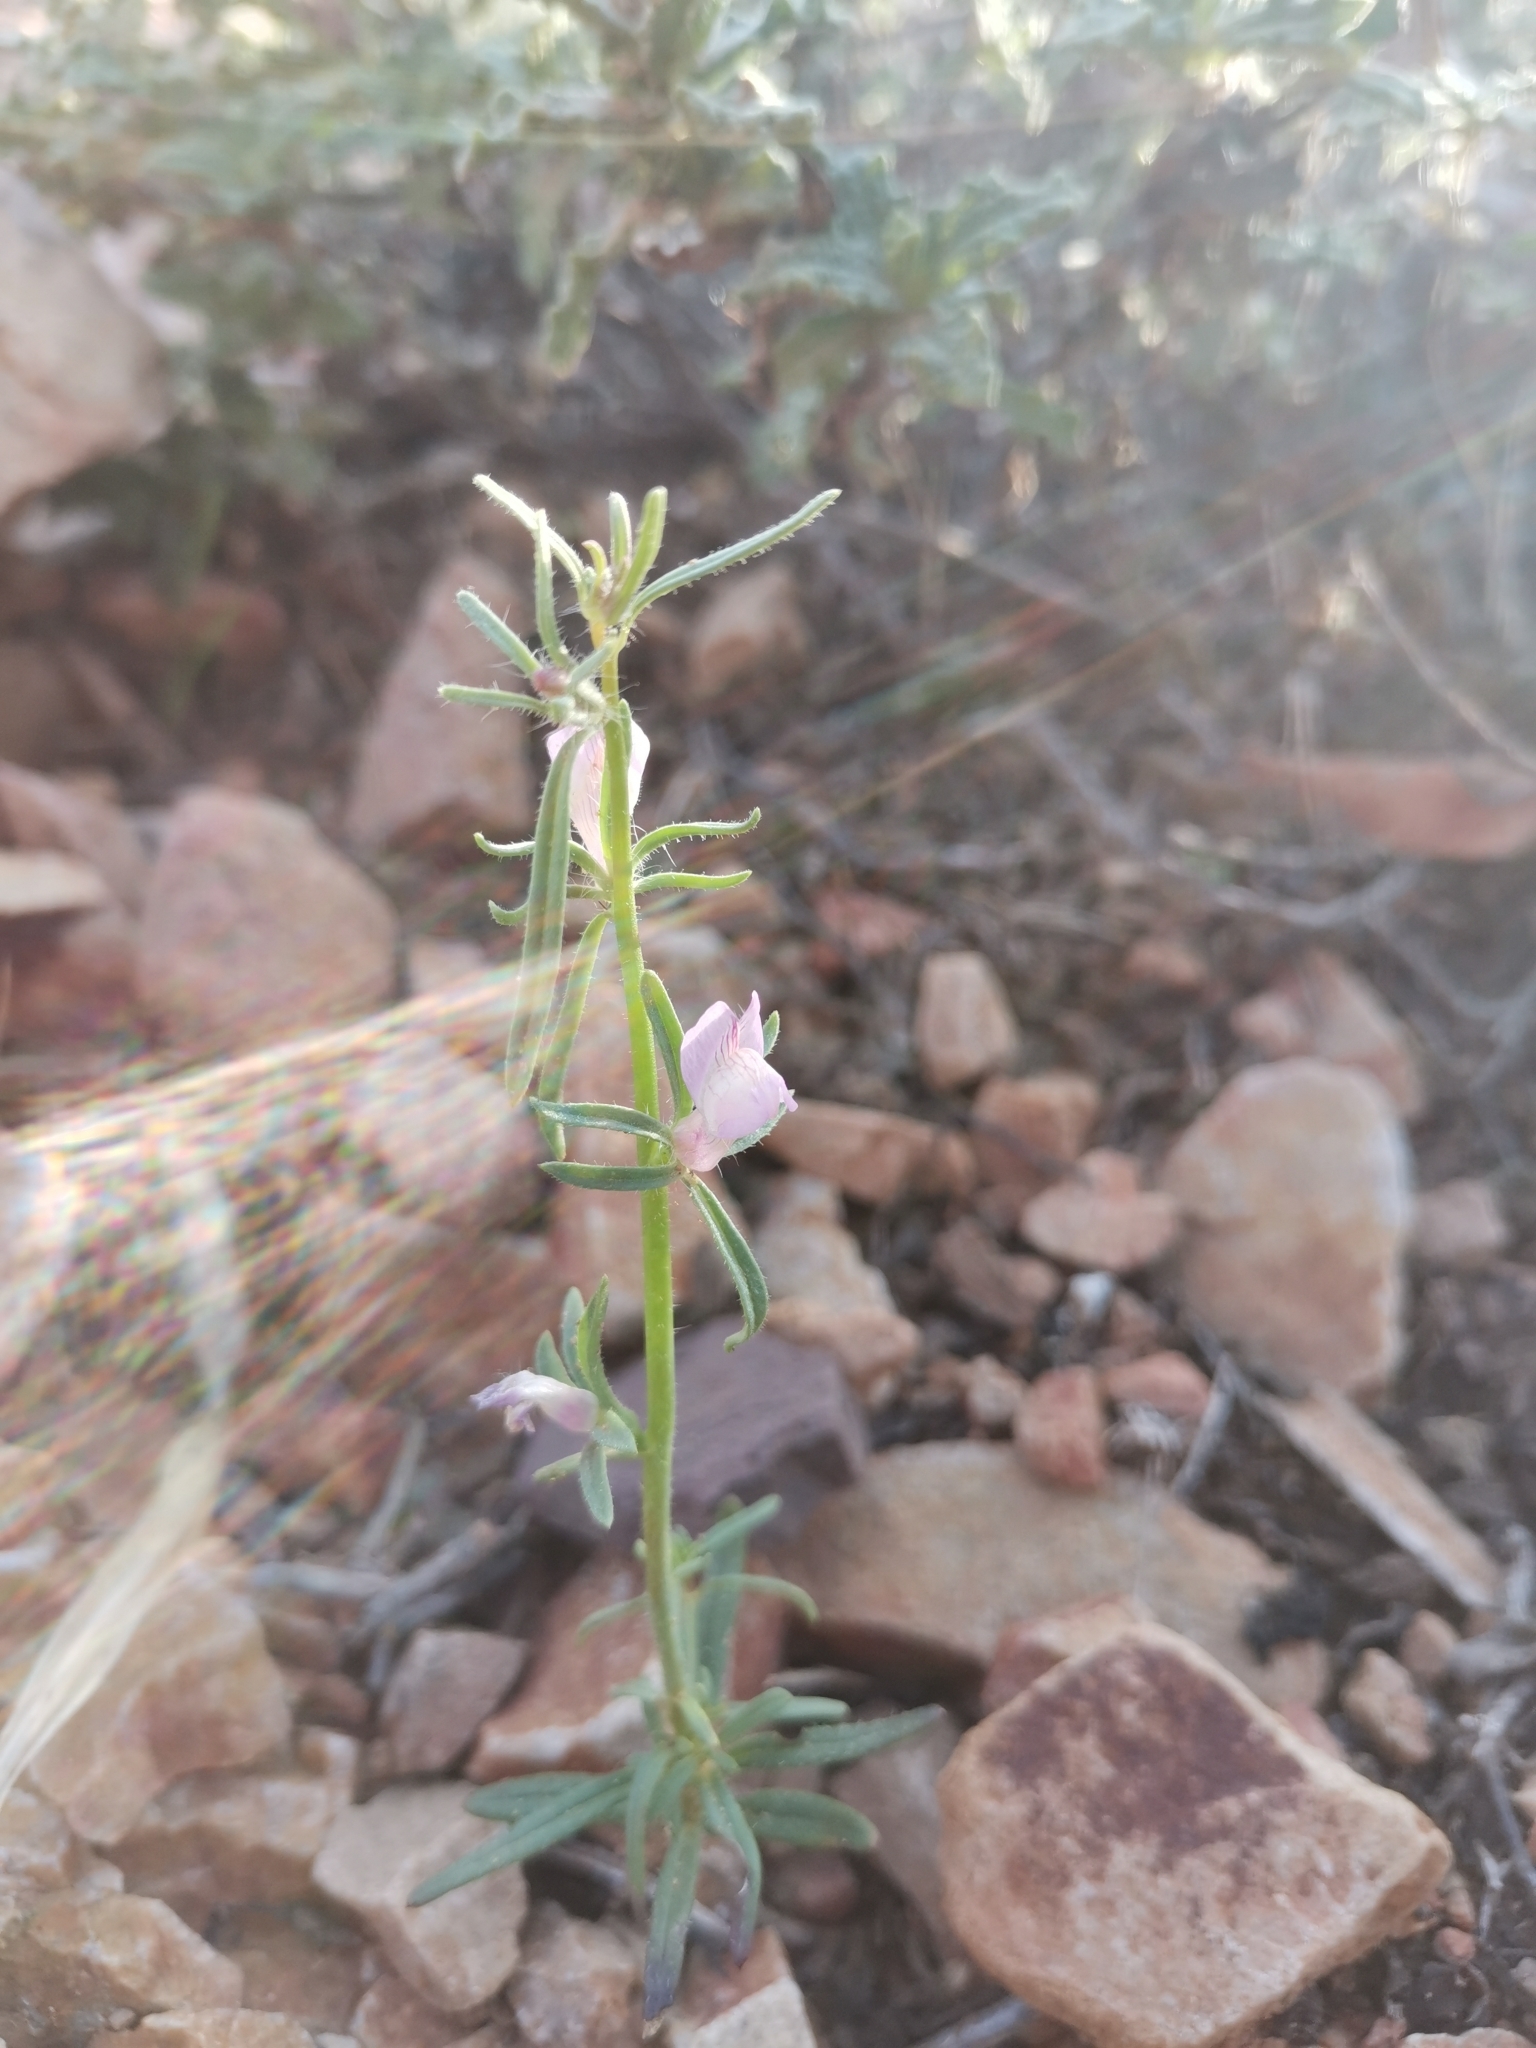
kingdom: Plantae
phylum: Tracheophyta
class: Magnoliopsida
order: Lamiales
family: Plantaginaceae
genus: Misopates
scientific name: Misopates microcarpum
